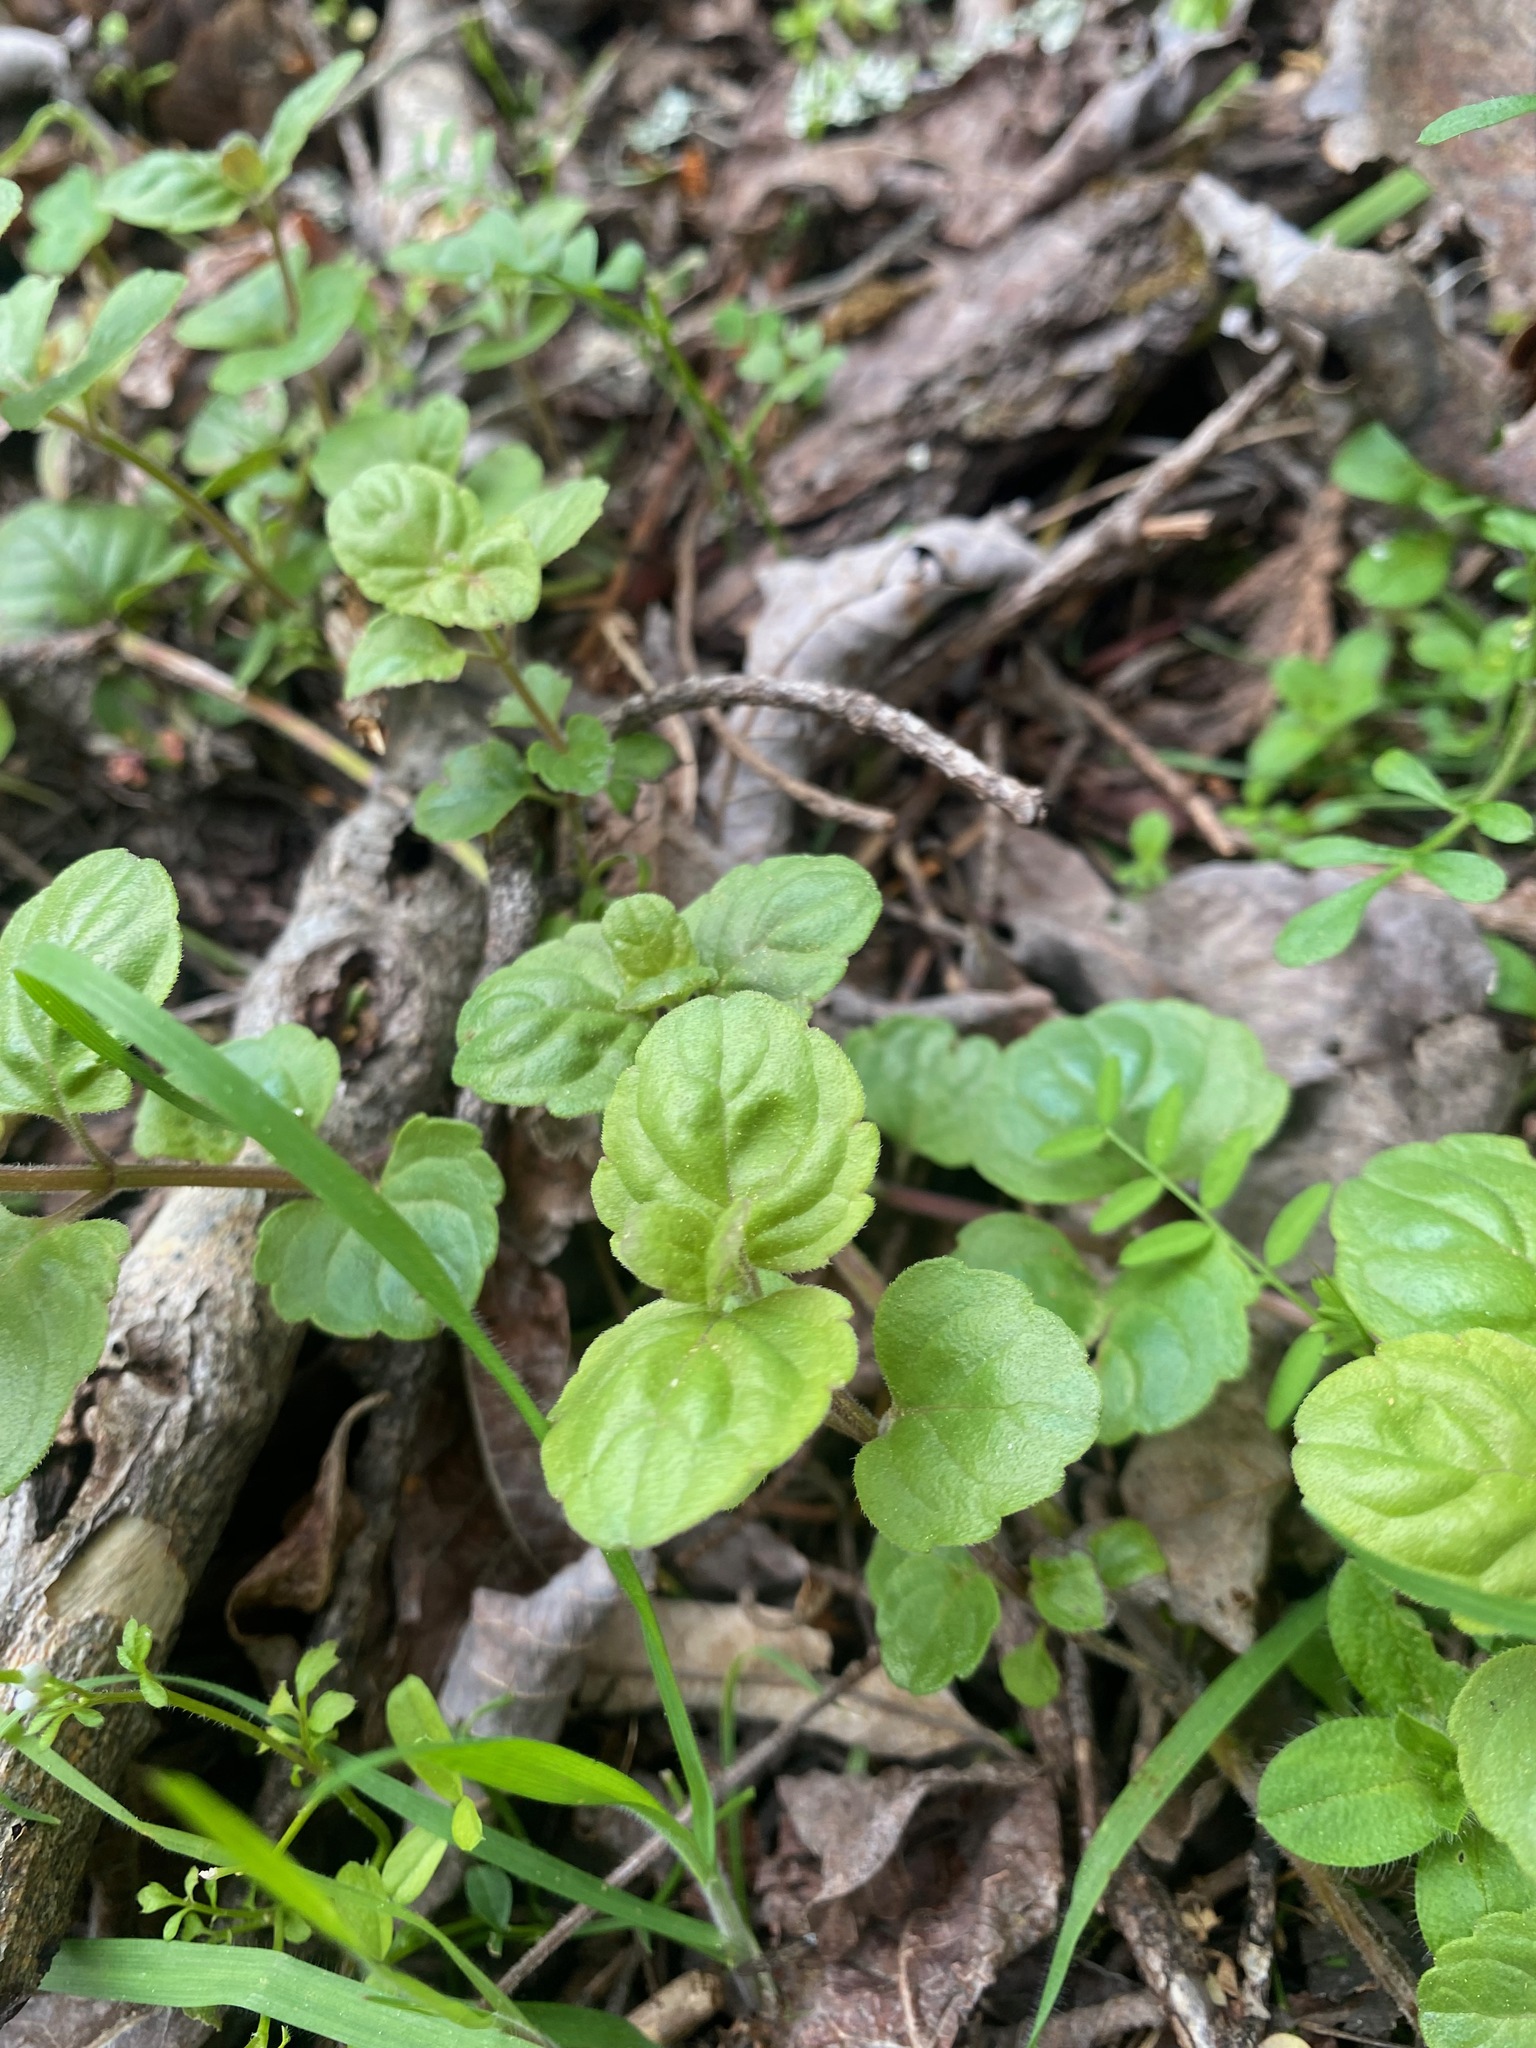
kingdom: Plantae
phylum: Tracheophyta
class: Magnoliopsida
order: Lamiales
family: Lamiaceae
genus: Micromeria
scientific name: Micromeria douglasii
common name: Yerba buena
